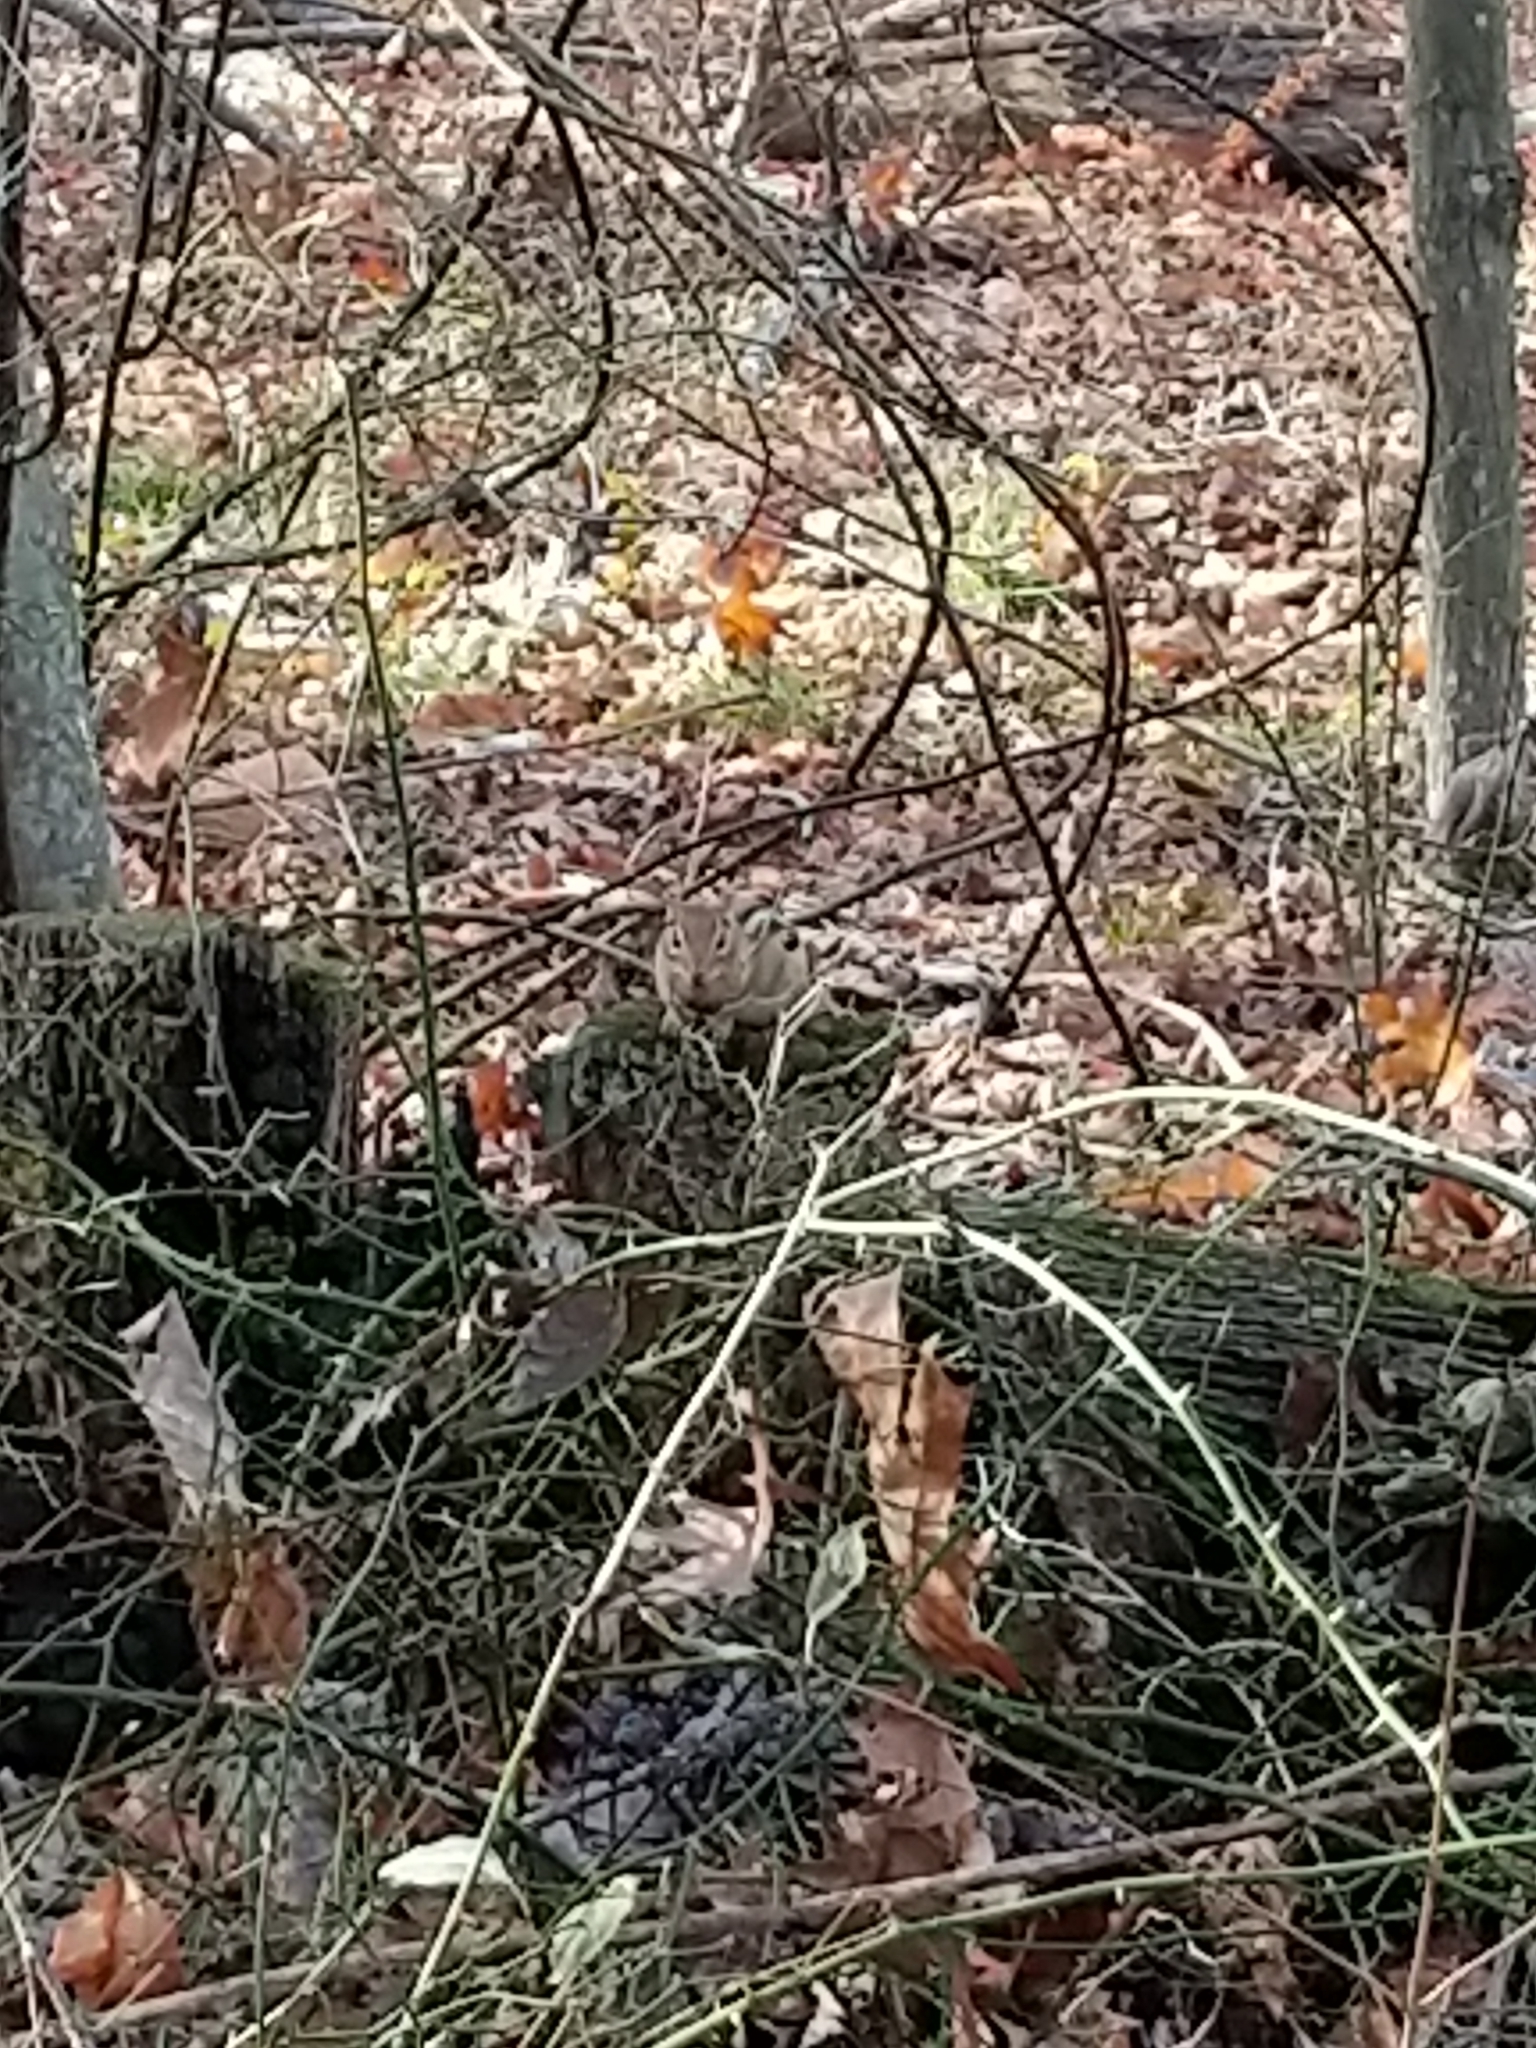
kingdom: Animalia
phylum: Chordata
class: Mammalia
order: Rodentia
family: Sciuridae
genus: Tamias
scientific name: Tamias striatus
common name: Eastern chipmunk
